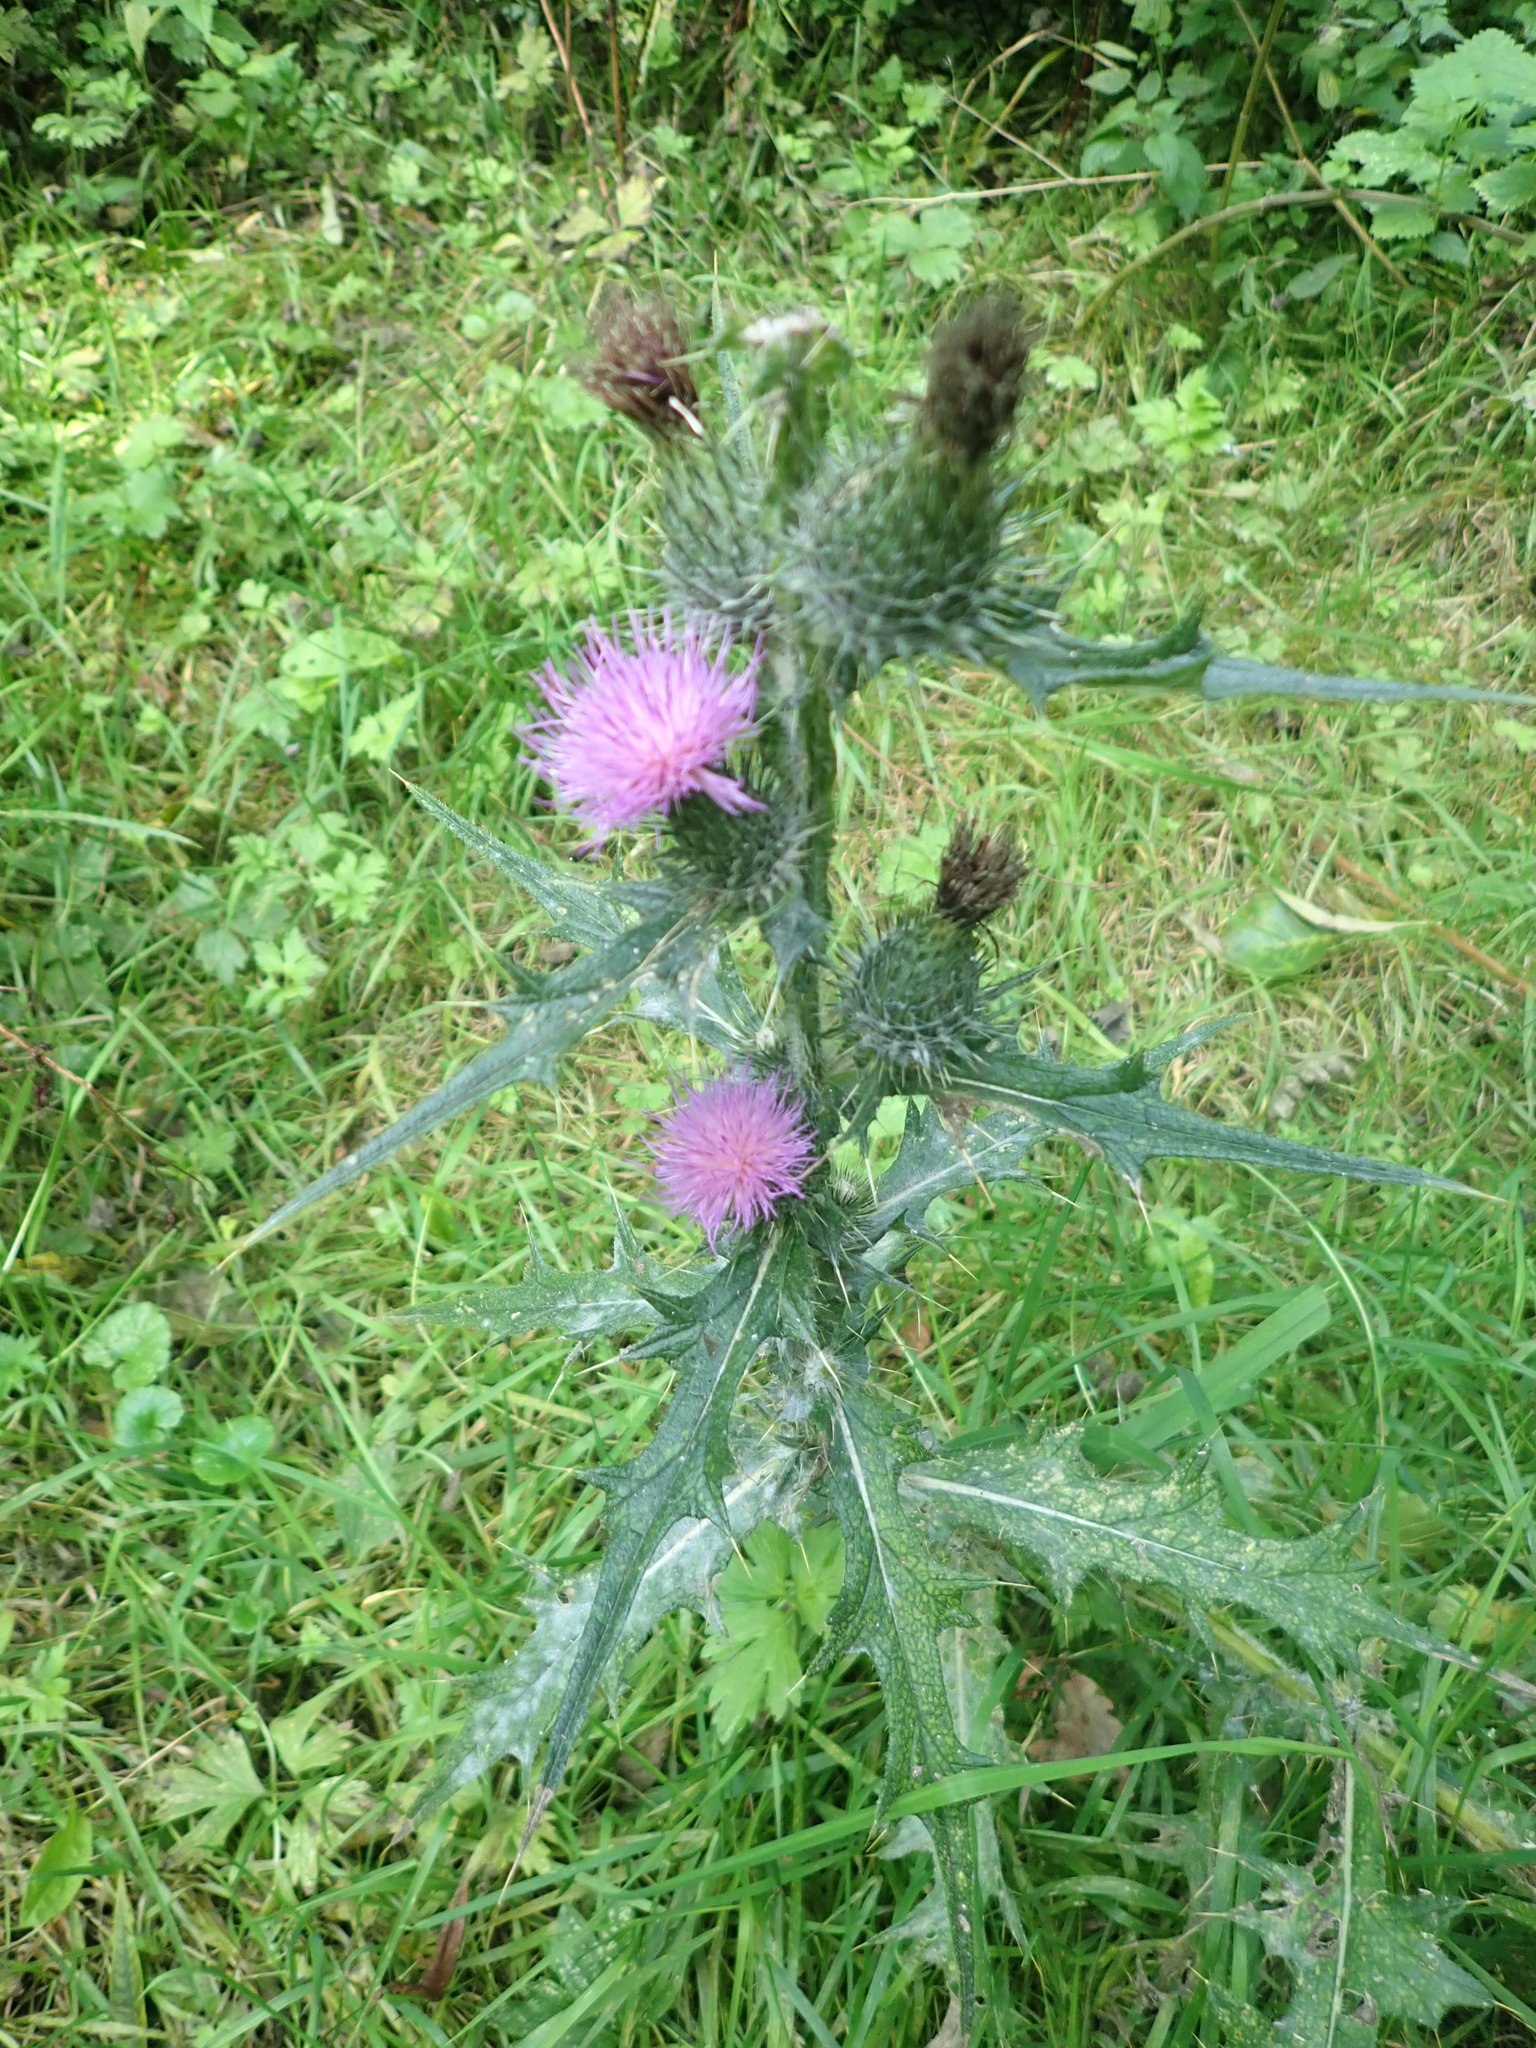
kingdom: Plantae
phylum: Tracheophyta
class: Magnoliopsida
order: Asterales
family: Asteraceae
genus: Cirsium
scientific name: Cirsium vulgare
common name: Bull thistle
